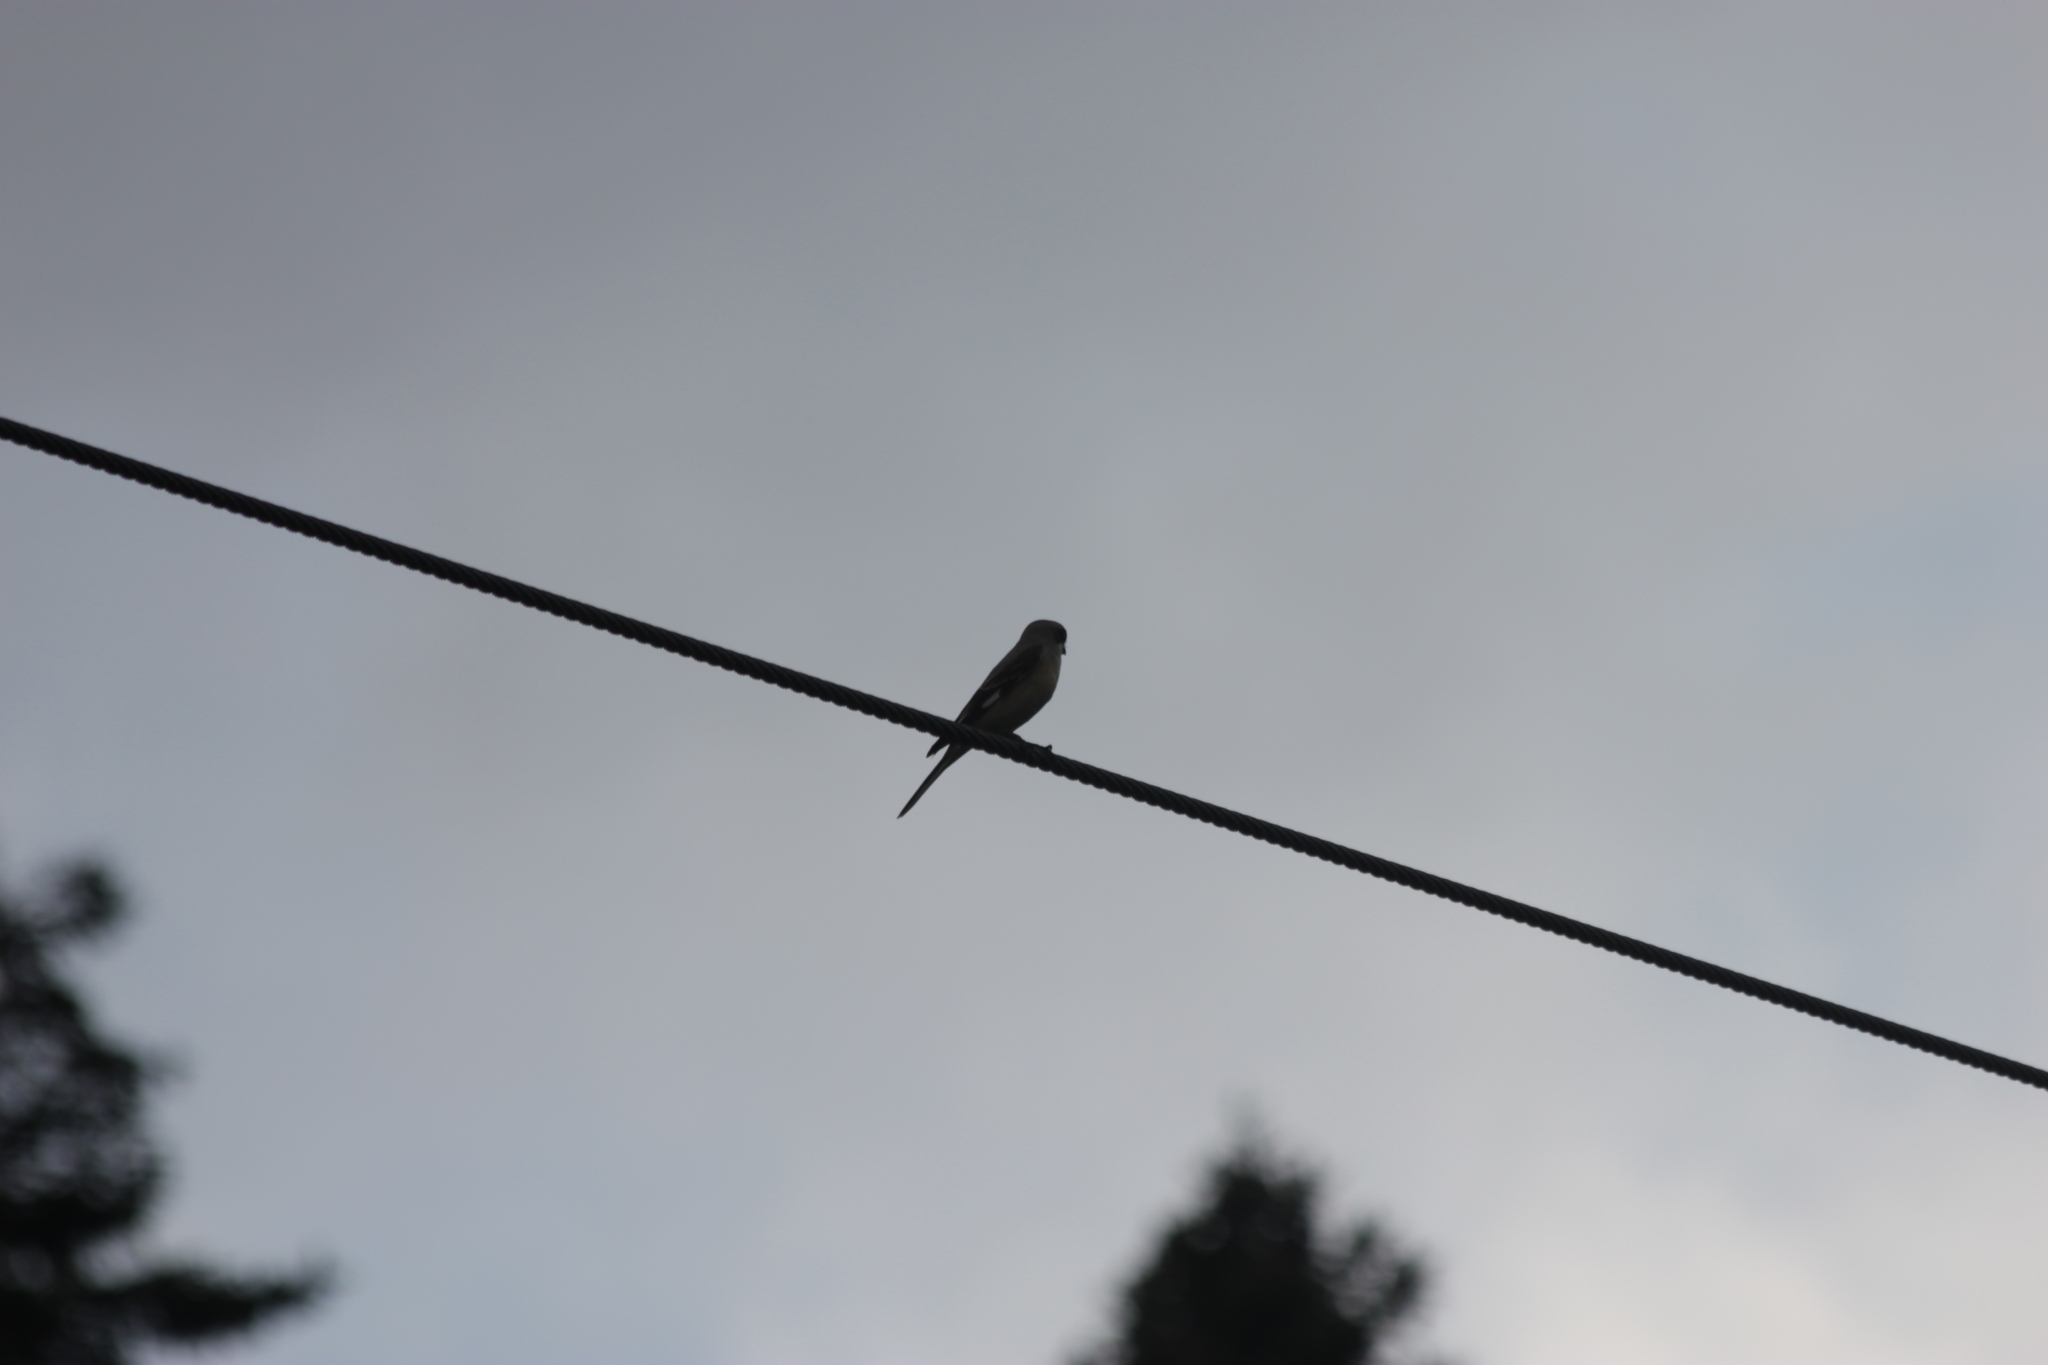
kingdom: Animalia
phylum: Chordata
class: Aves
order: Passeriformes
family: Laniidae
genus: Lanius
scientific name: Lanius minor
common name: Lesser grey shrike
